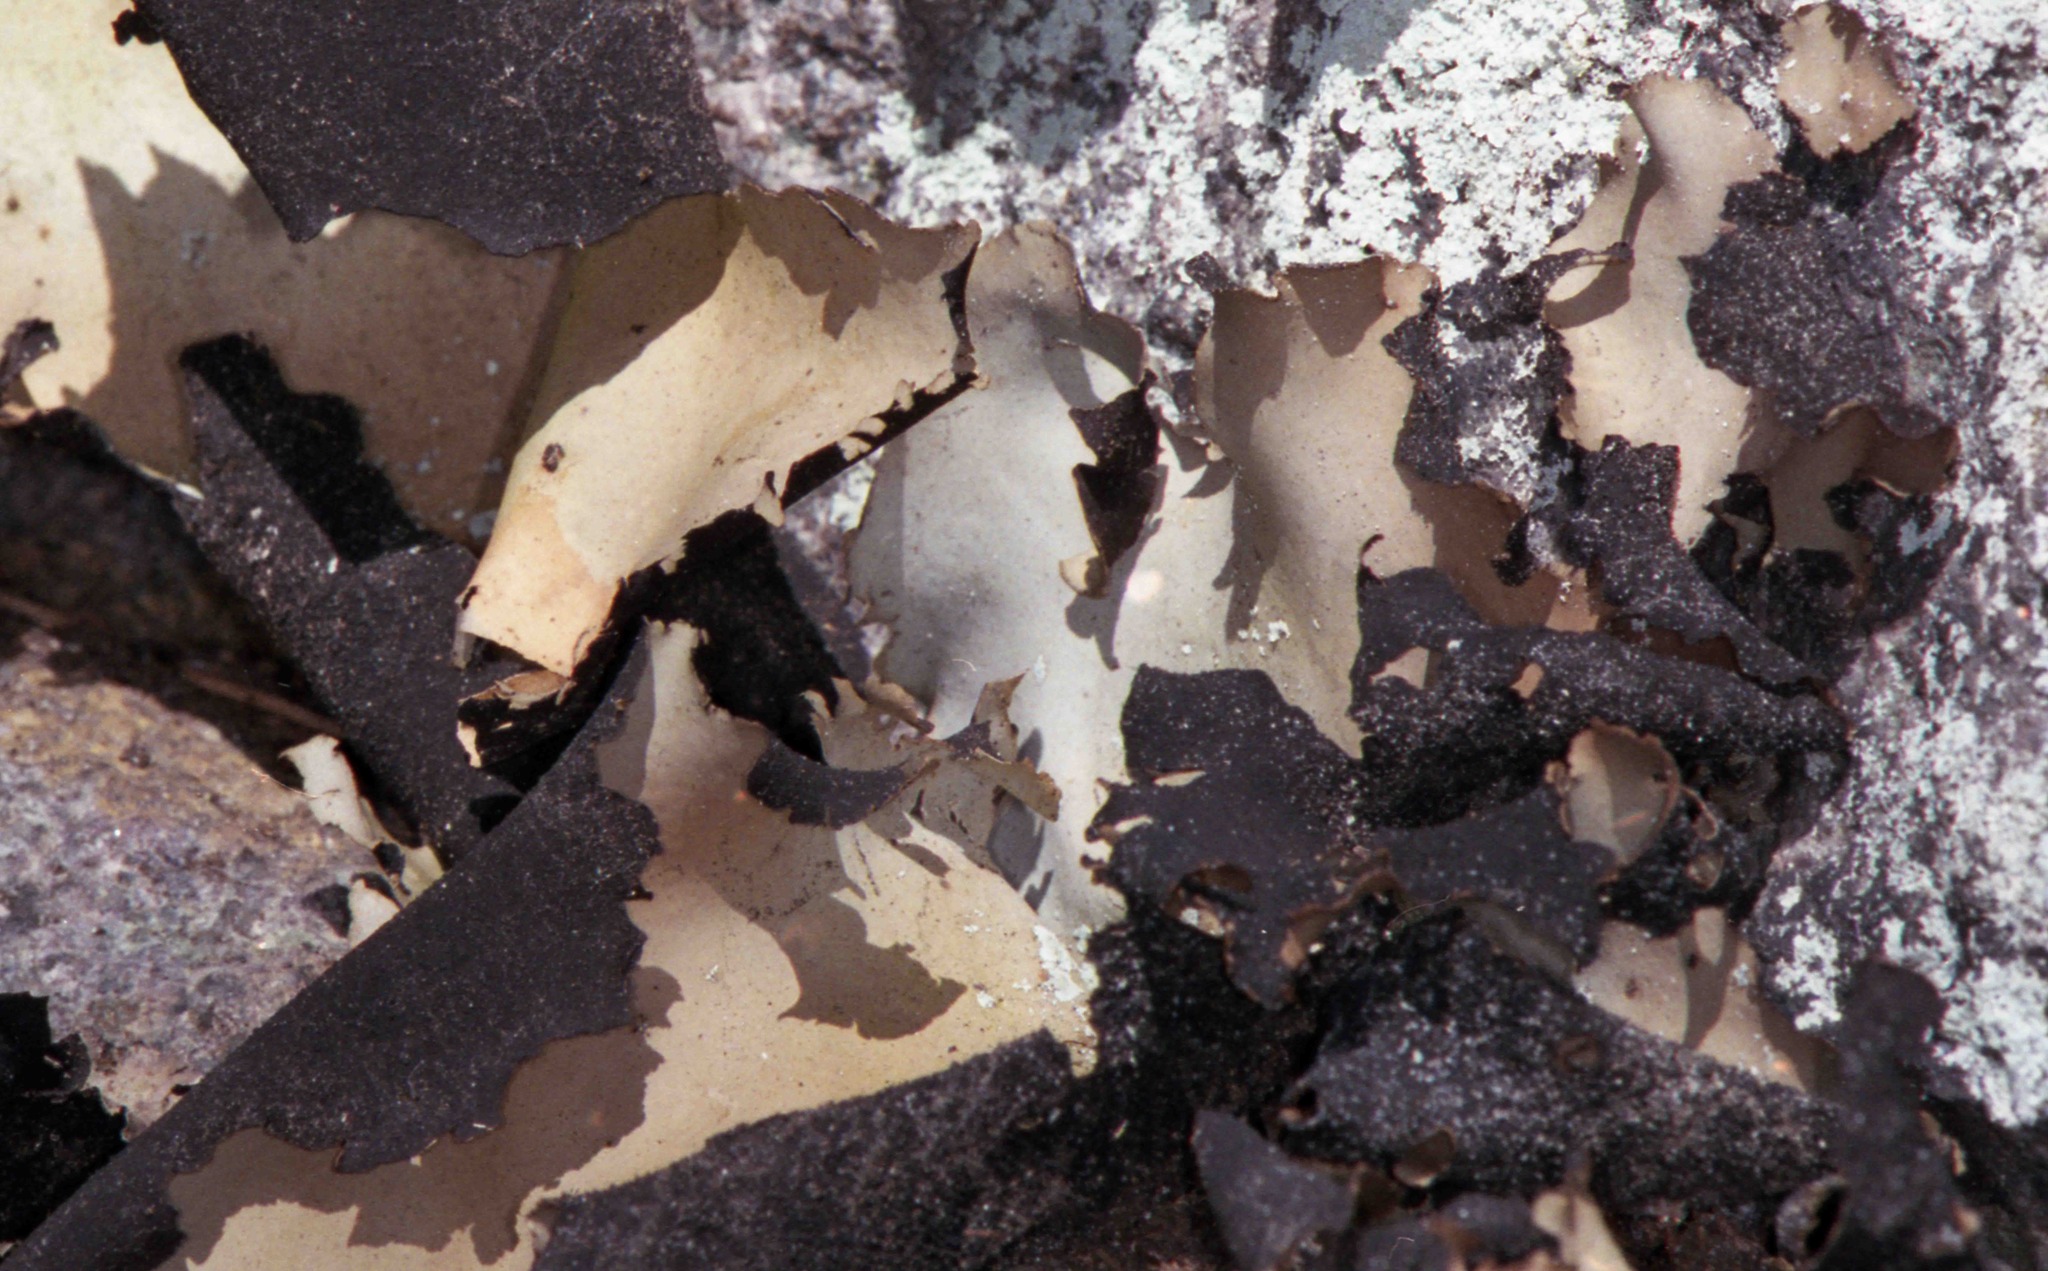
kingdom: Fungi
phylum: Ascomycota
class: Lecanoromycetes
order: Umbilicariales
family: Umbilicariaceae
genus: Umbilicaria
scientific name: Umbilicaria mammulata
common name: Smooth rock tripe
